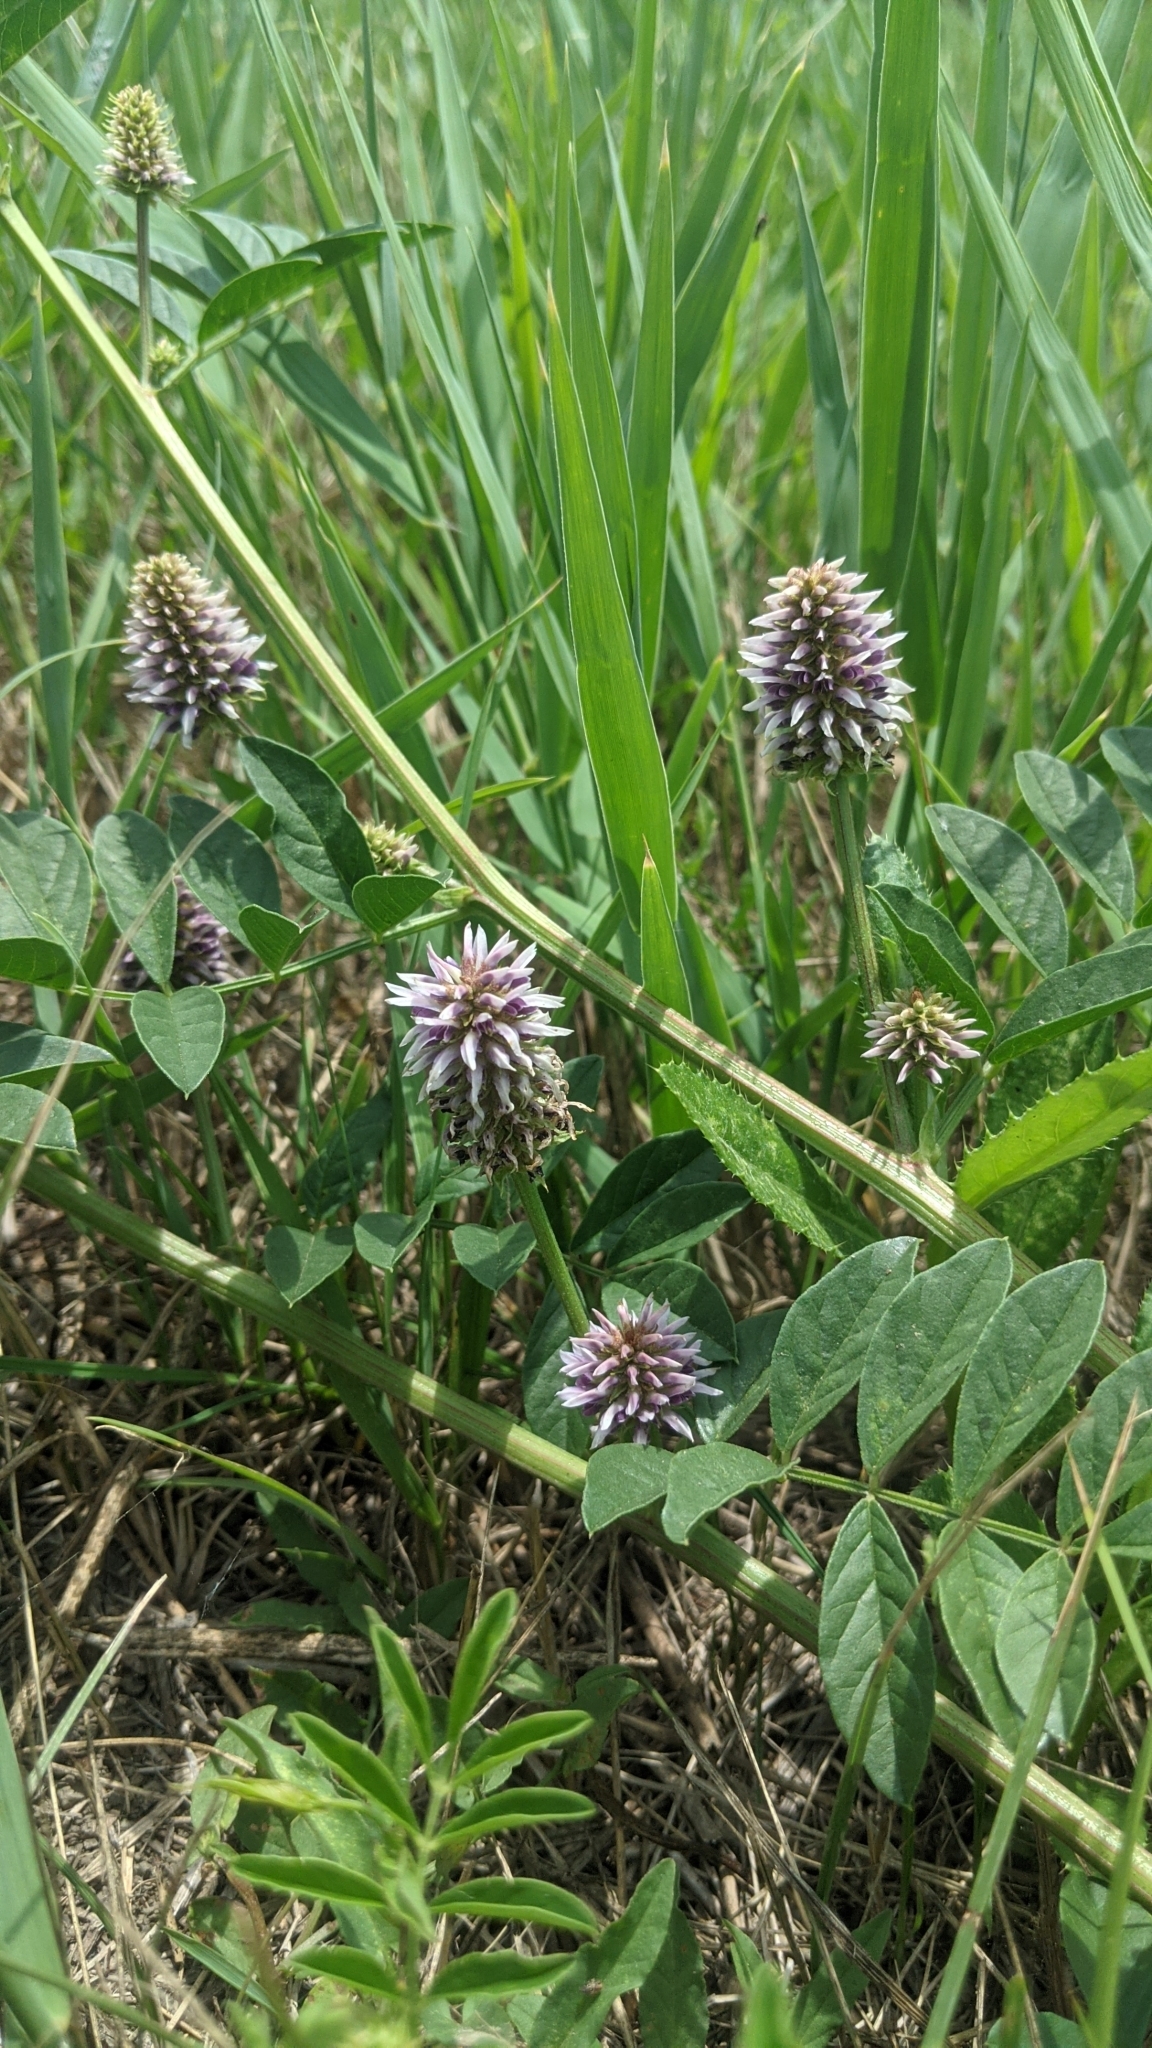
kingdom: Plantae
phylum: Tracheophyta
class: Magnoliopsida
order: Fabales
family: Fabaceae
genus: Glycyrrhiza
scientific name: Glycyrrhiza echinata
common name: German liquorice
